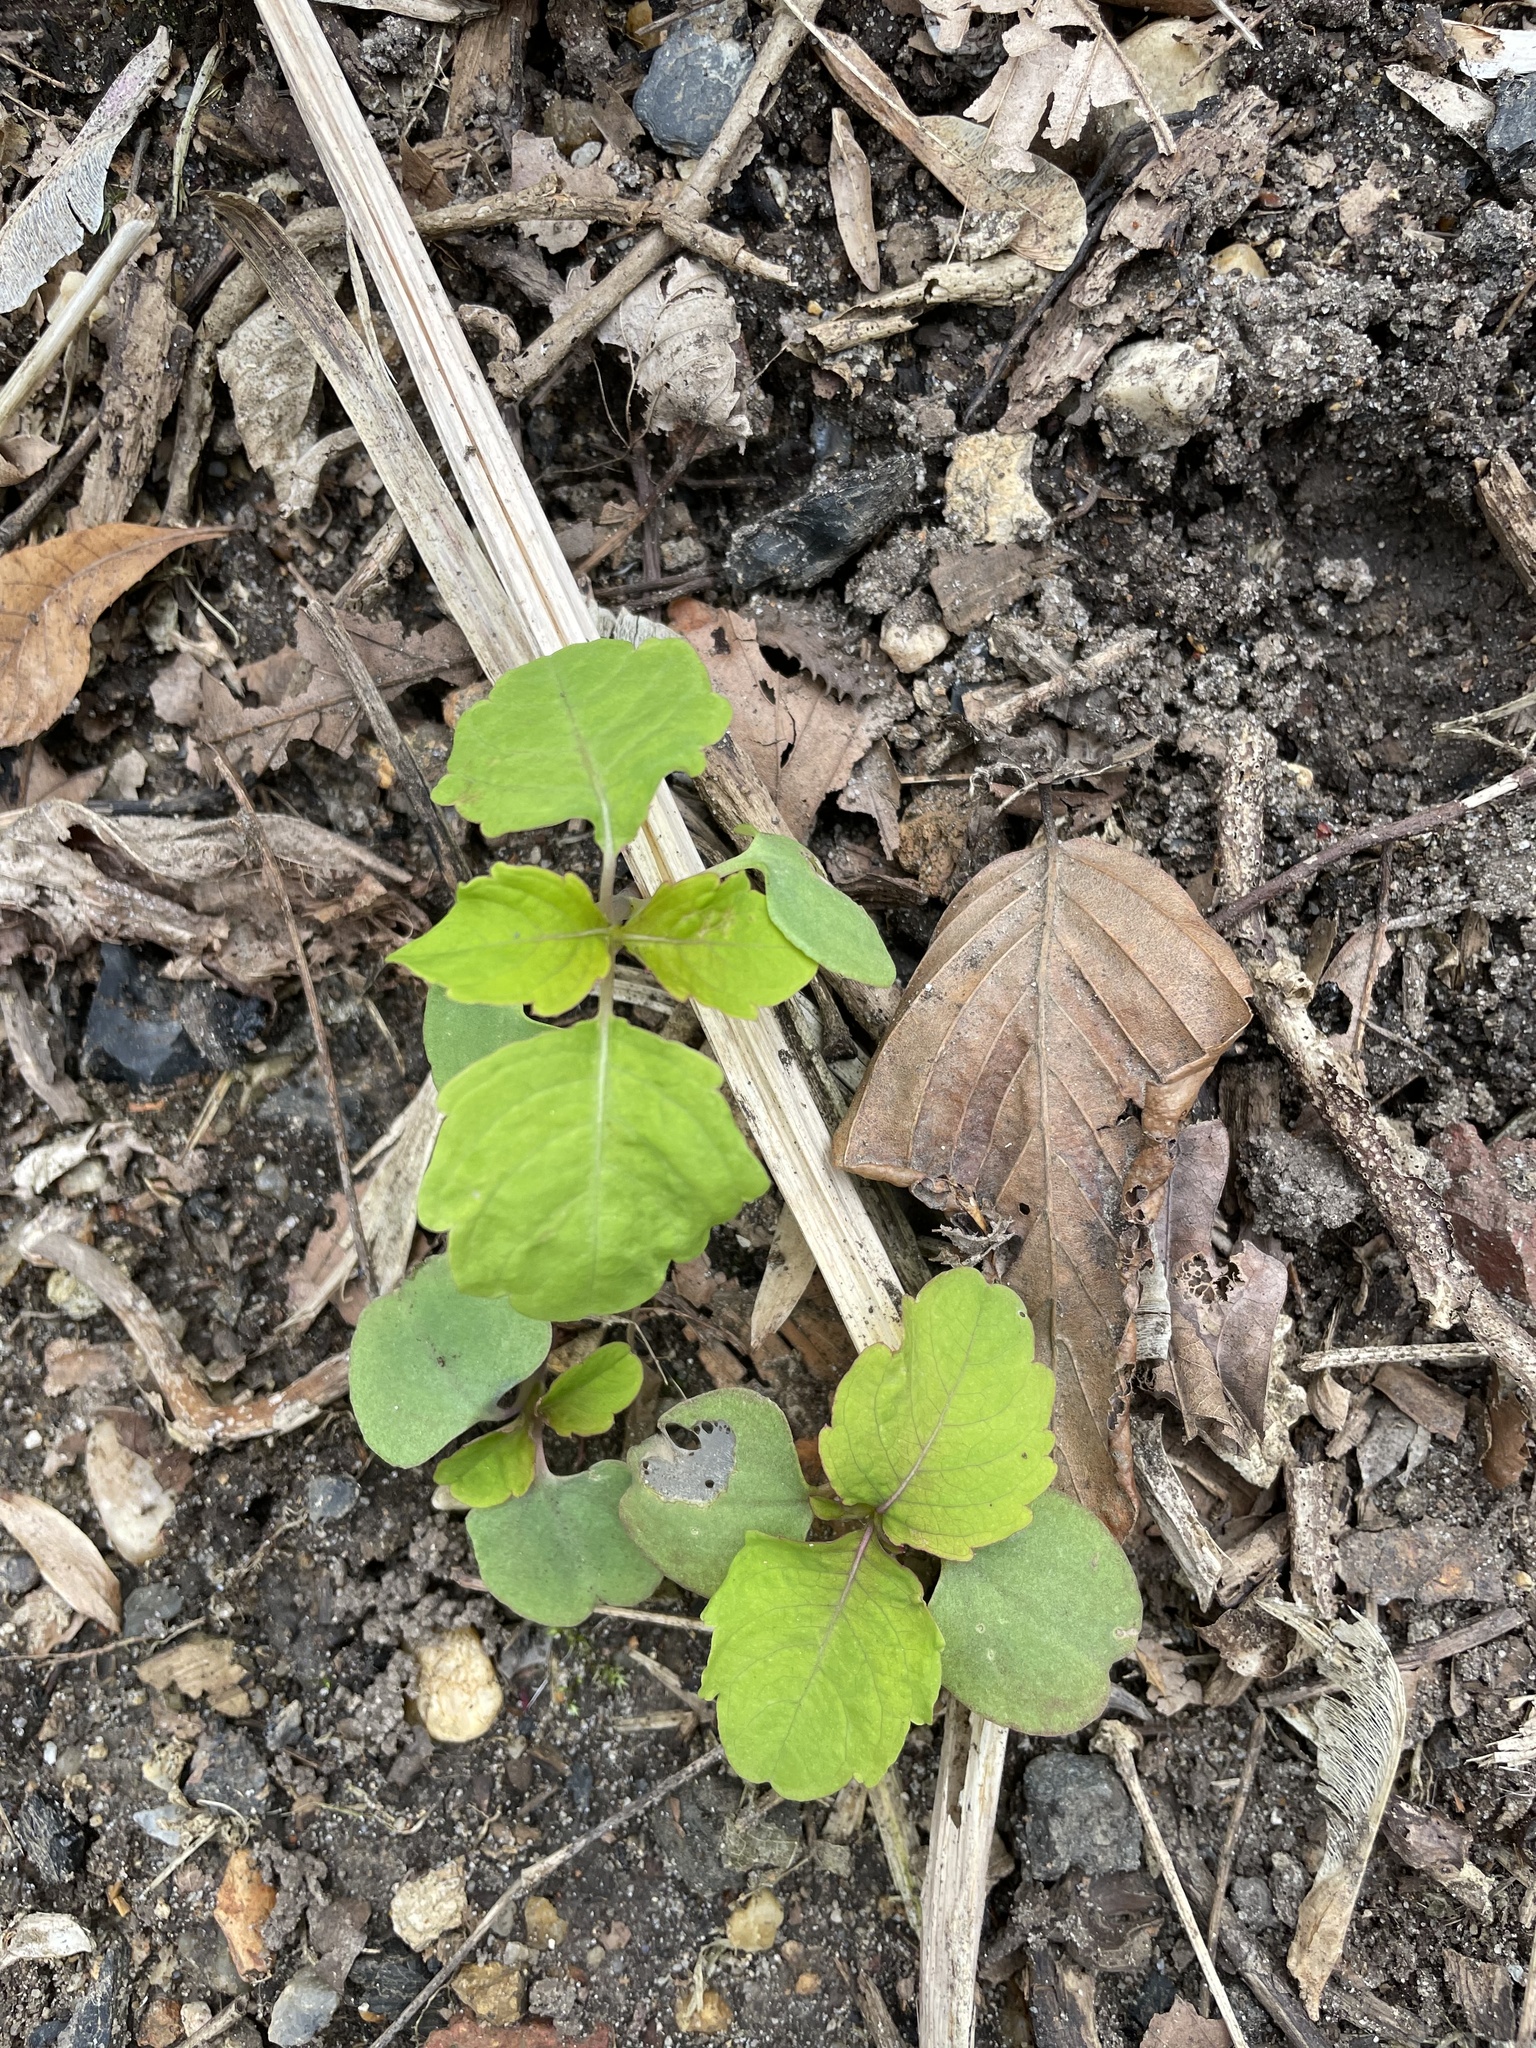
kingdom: Plantae
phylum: Tracheophyta
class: Magnoliopsida
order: Ericales
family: Balsaminaceae
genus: Impatiens
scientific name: Impatiens capensis
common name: Orange balsam
